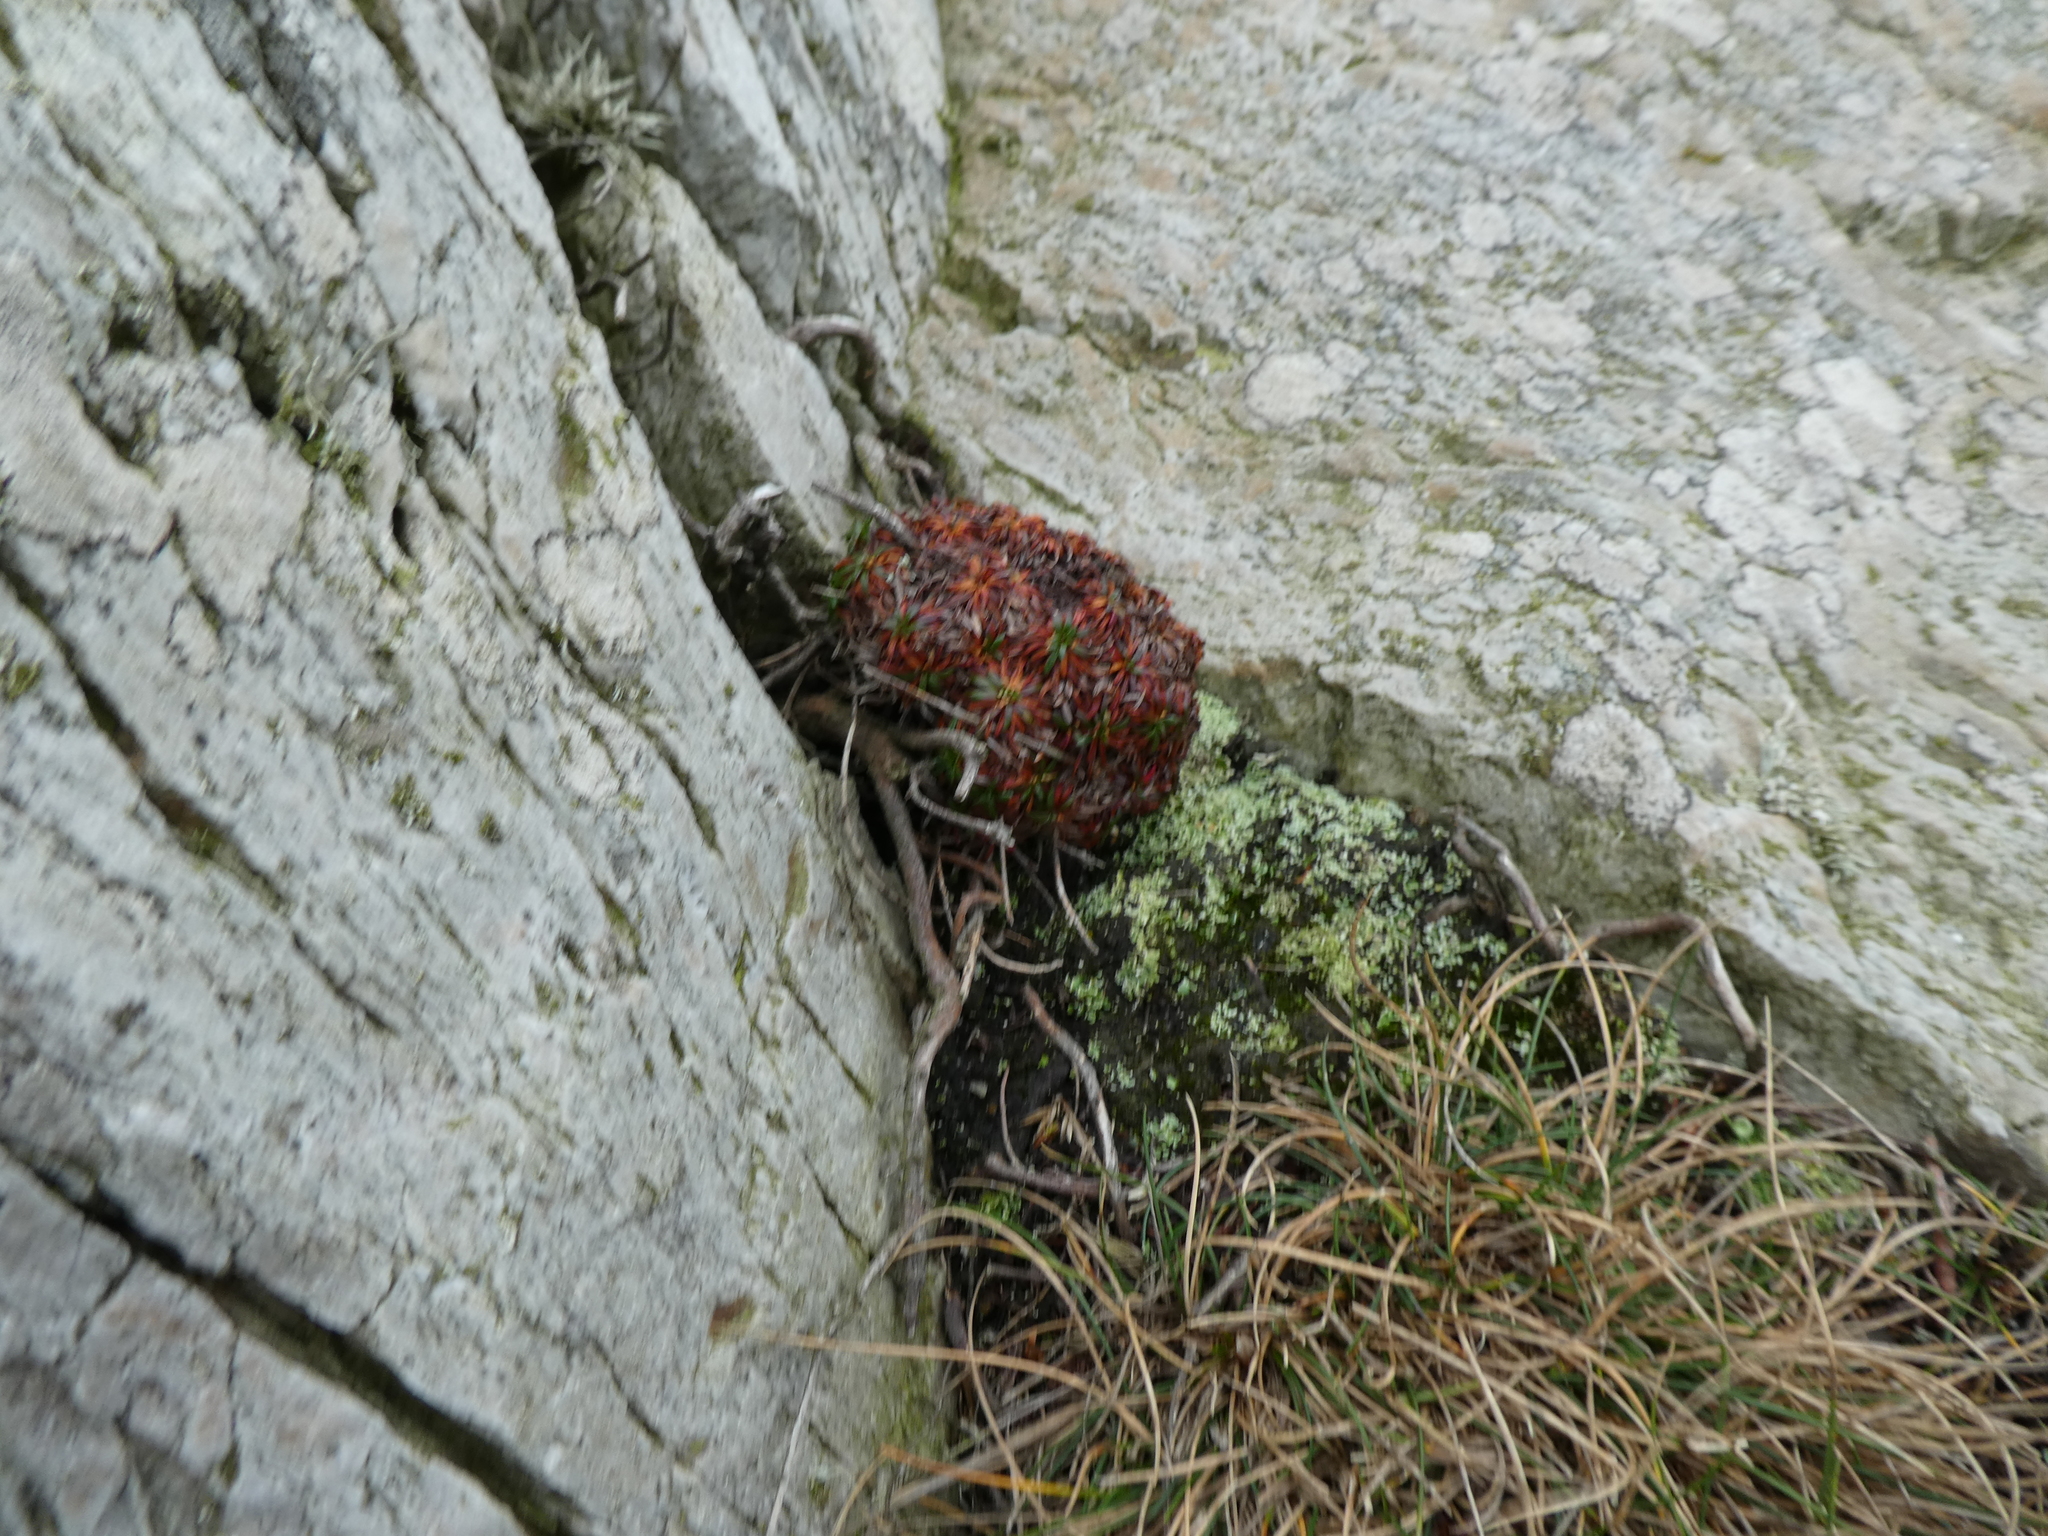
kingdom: Plantae
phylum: Tracheophyta
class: Magnoliopsida
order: Caryophyllales
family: Plumbaginaceae
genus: Armeria
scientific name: Armeria maritima
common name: Thrift
